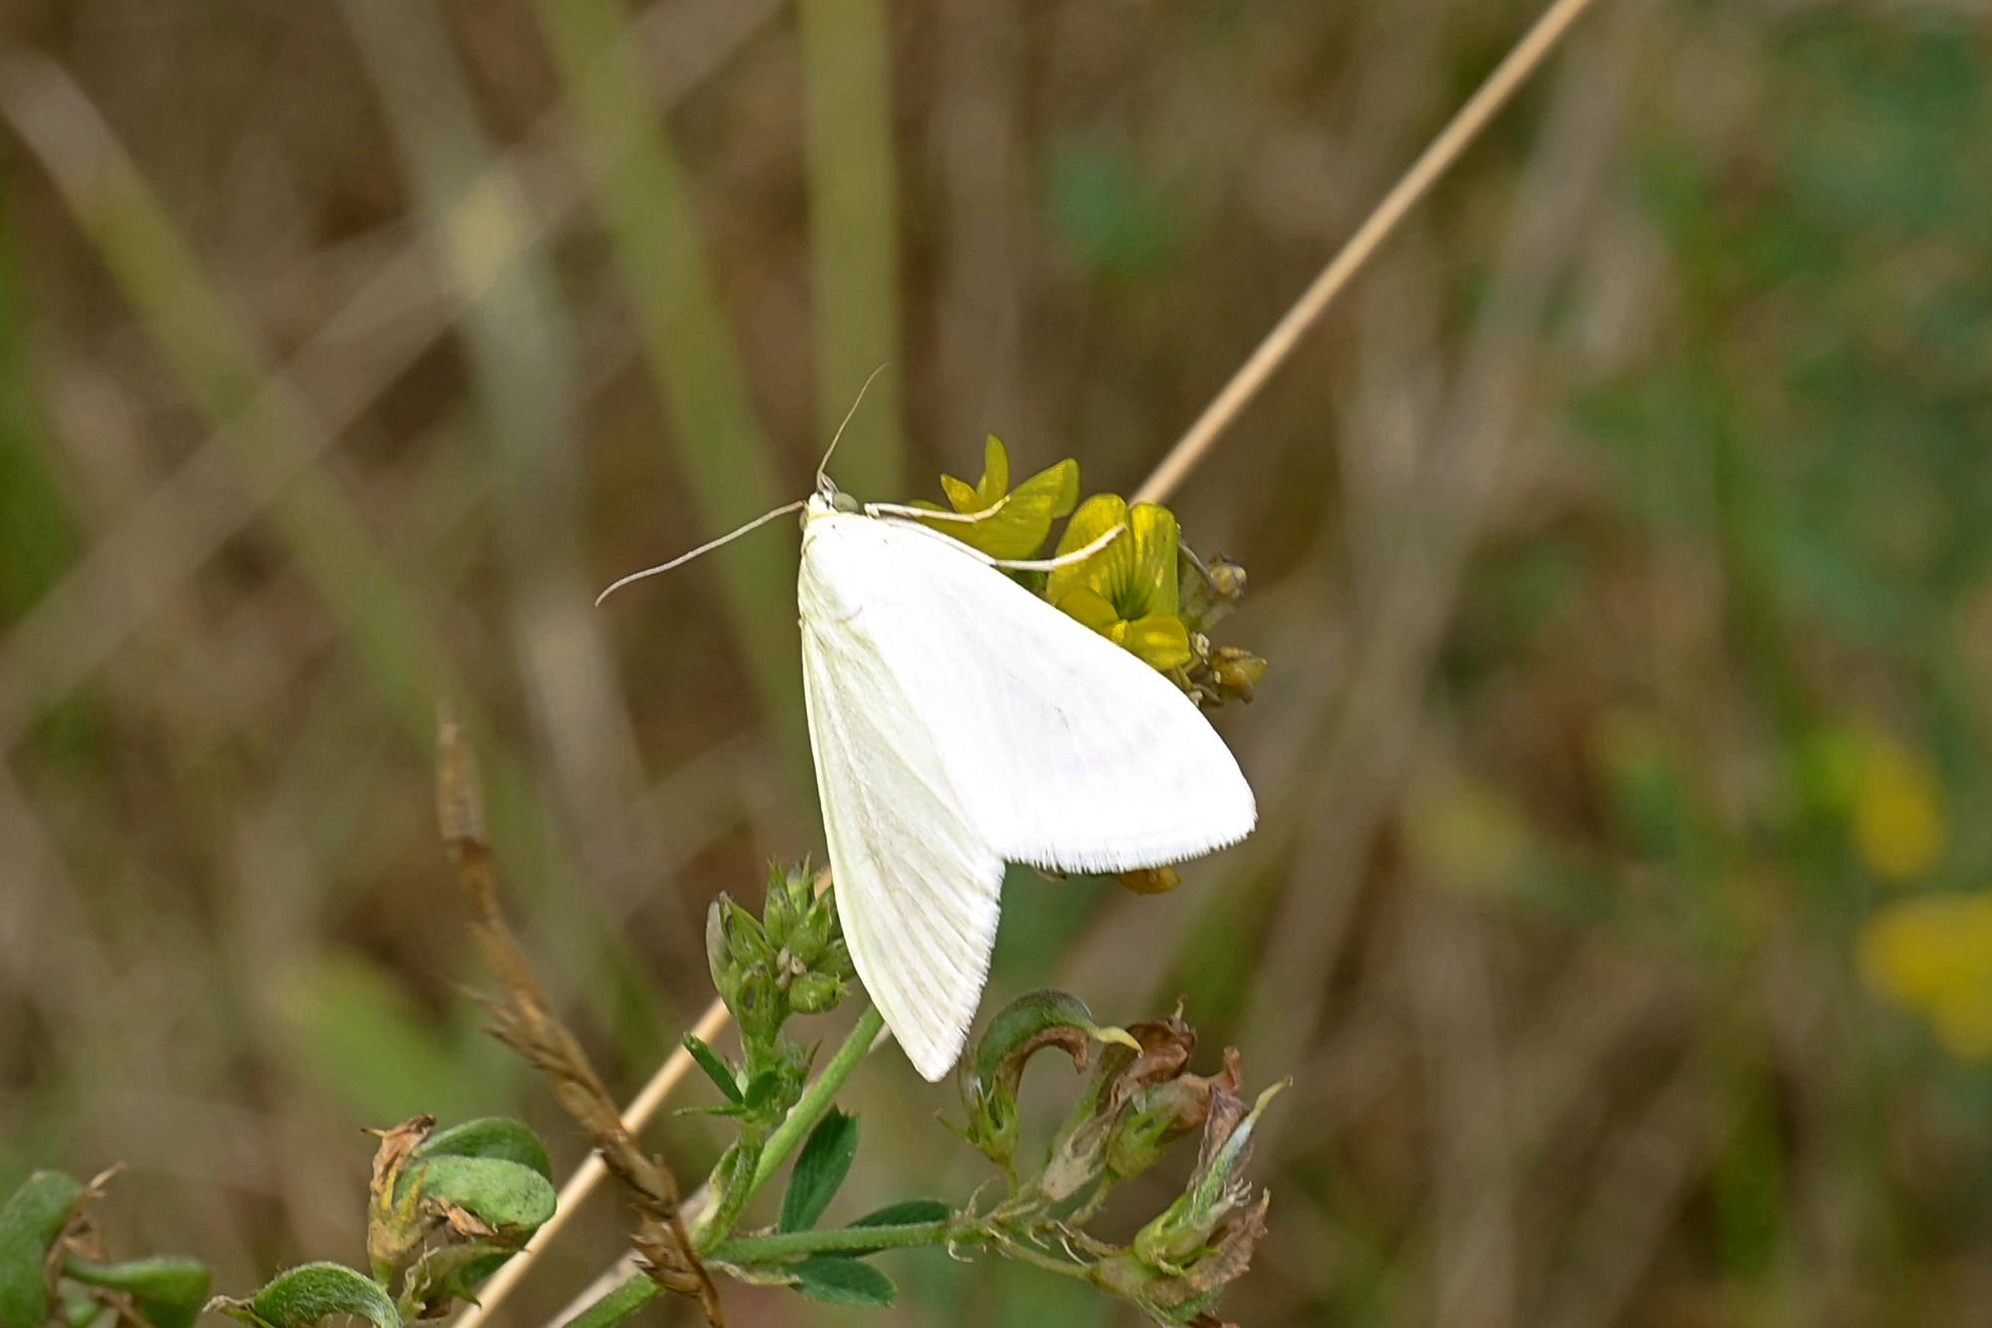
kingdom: Animalia
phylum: Arthropoda
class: Insecta
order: Lepidoptera
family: Crambidae
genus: Sitochroa
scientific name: Sitochroa palealis
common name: Greenish-yellow sitochroa moth
